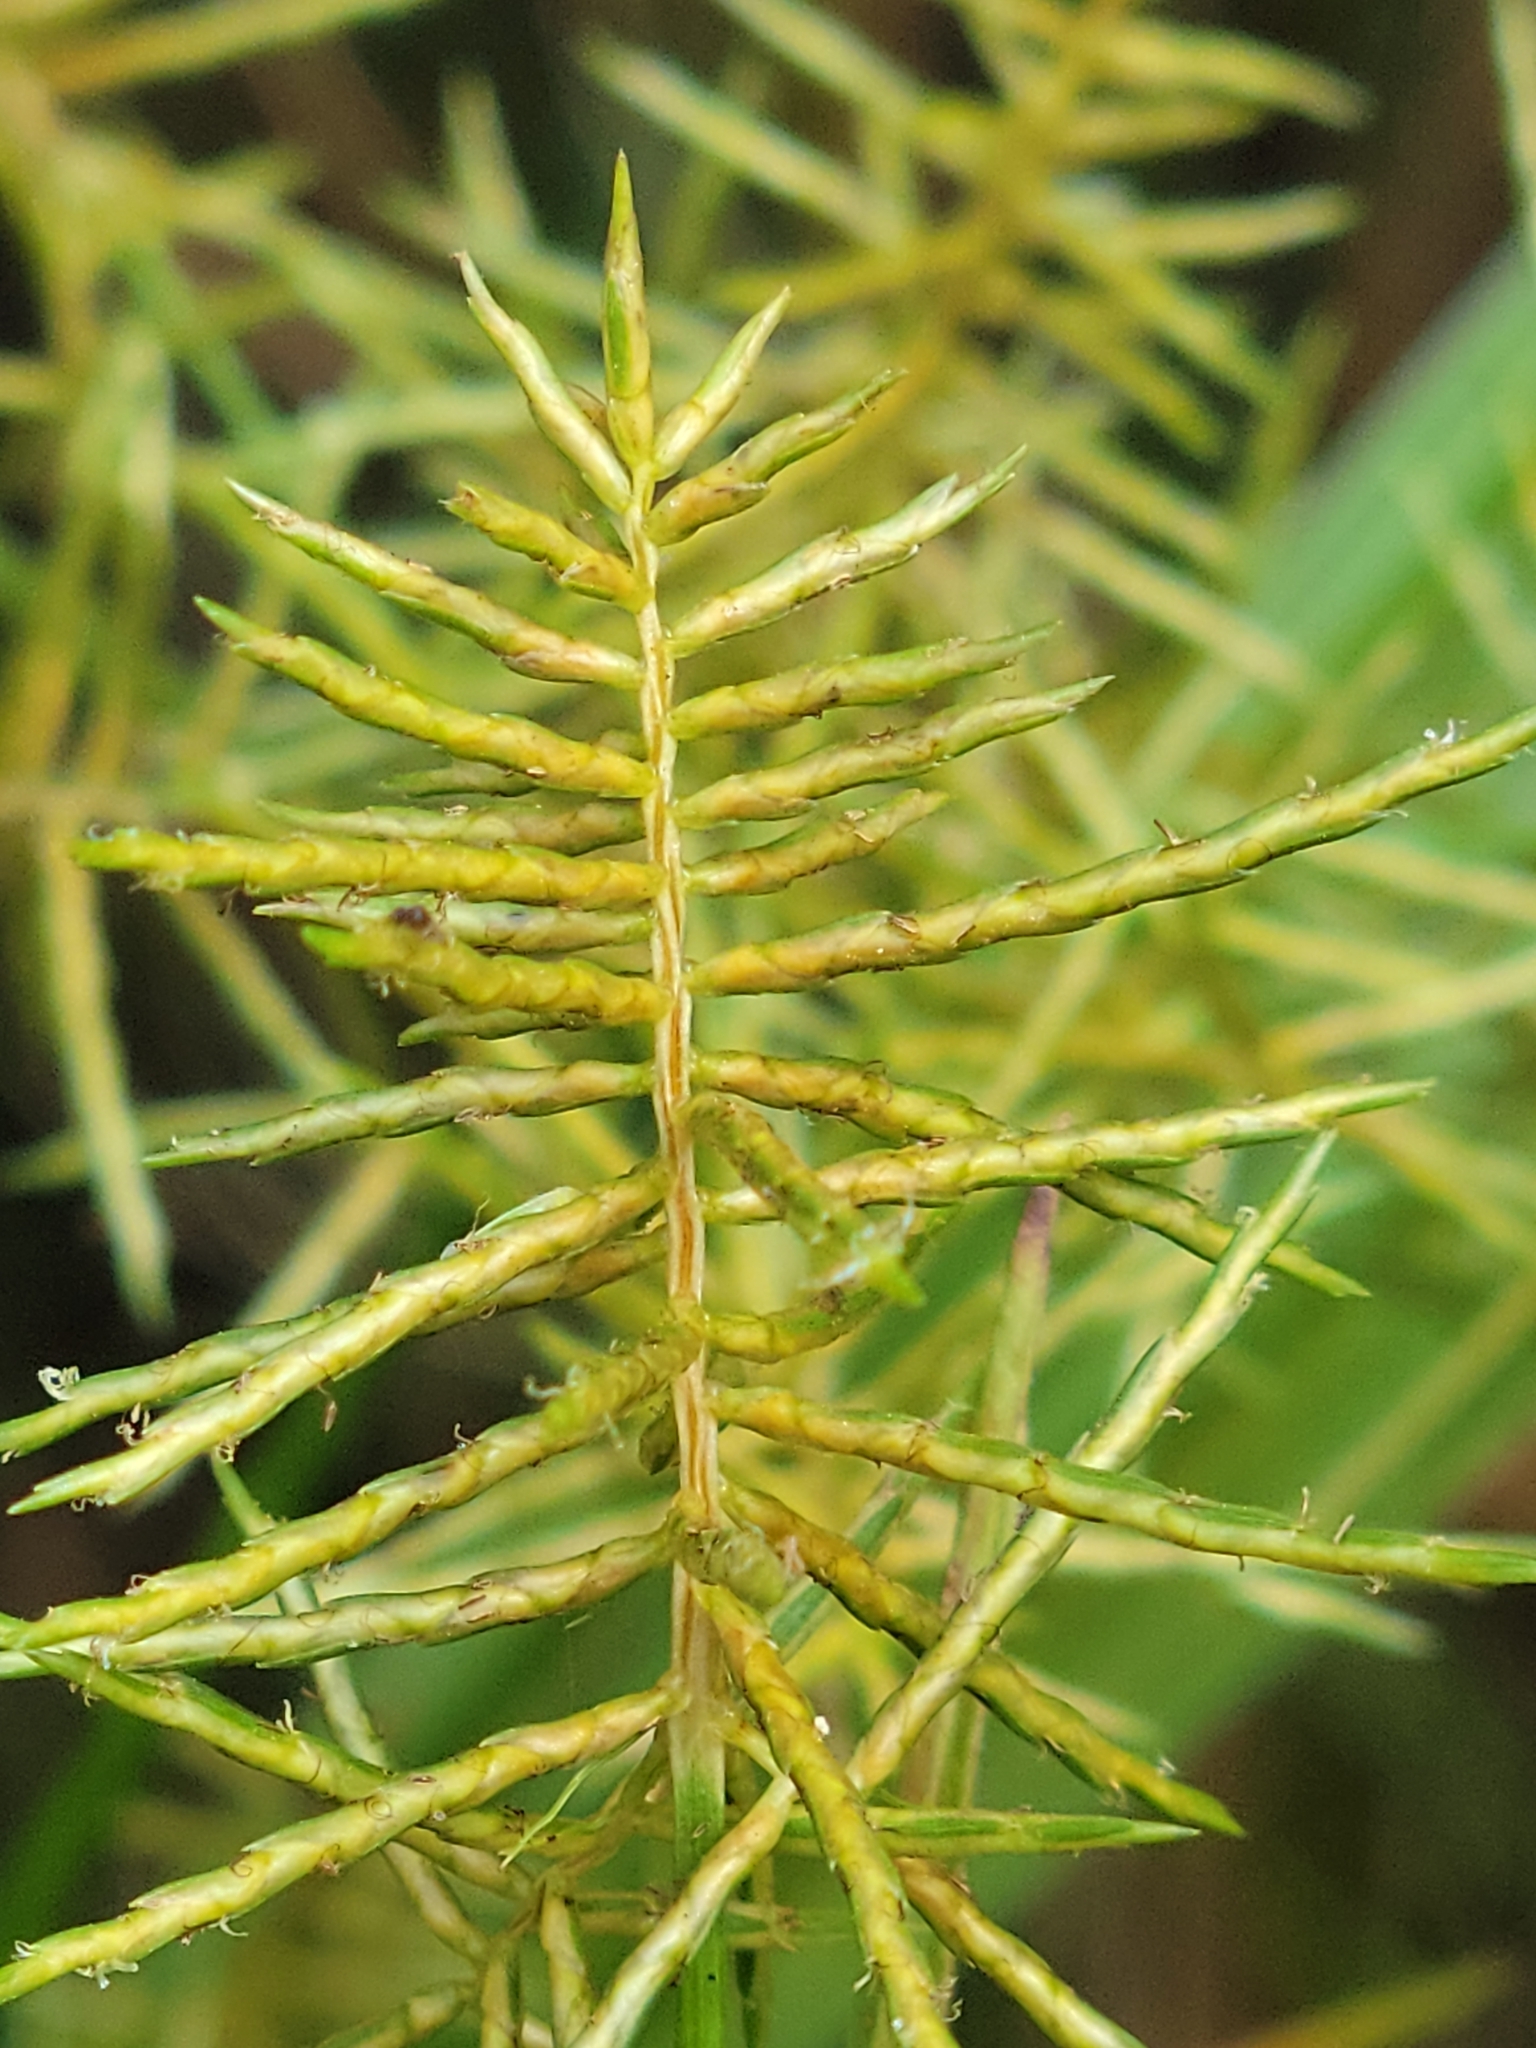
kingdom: Plantae
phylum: Tracheophyta
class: Liliopsida
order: Poales
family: Cyperaceae
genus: Cyperus
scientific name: Cyperus odoratus
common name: Fragrant flatsedge
